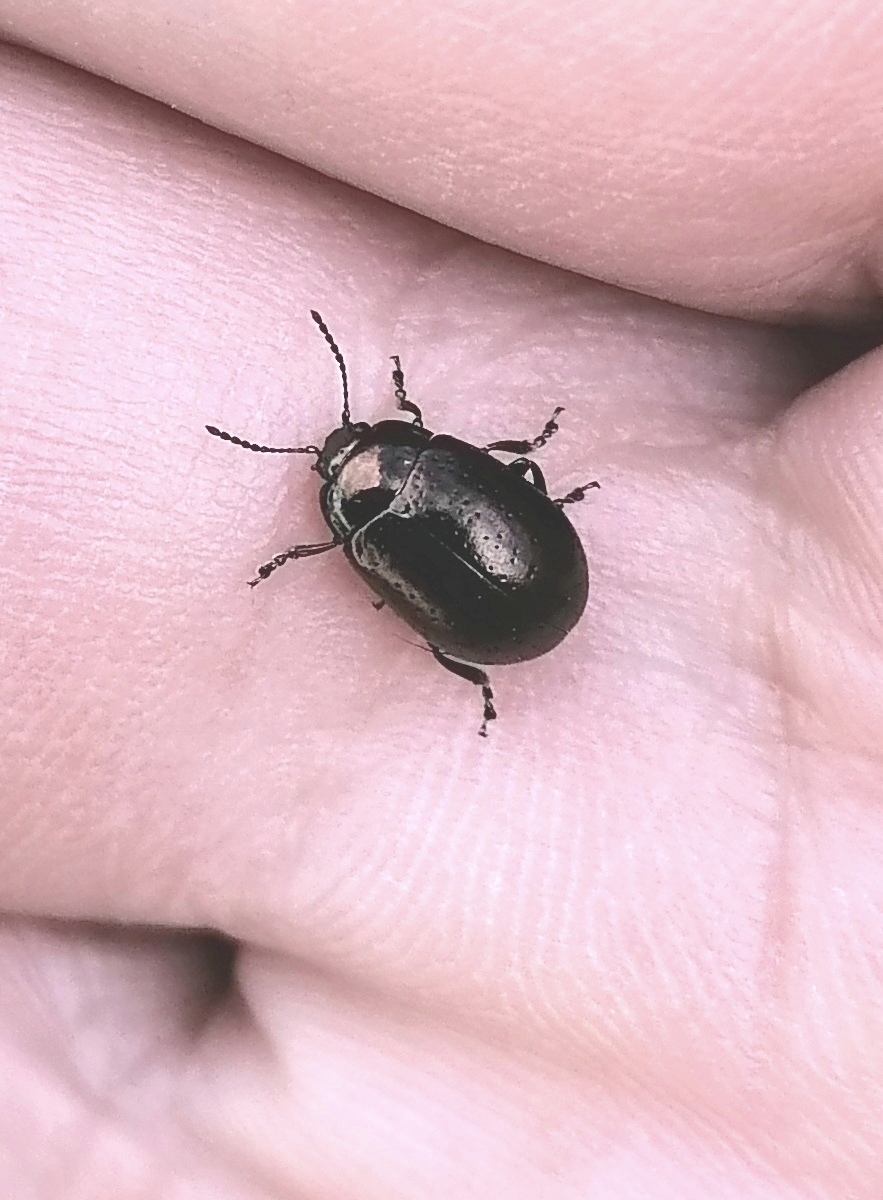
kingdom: Animalia
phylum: Arthropoda
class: Insecta
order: Coleoptera
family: Chrysomelidae
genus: Chrysolina
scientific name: Chrysolina hyperici
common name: St. johnswort beetle
